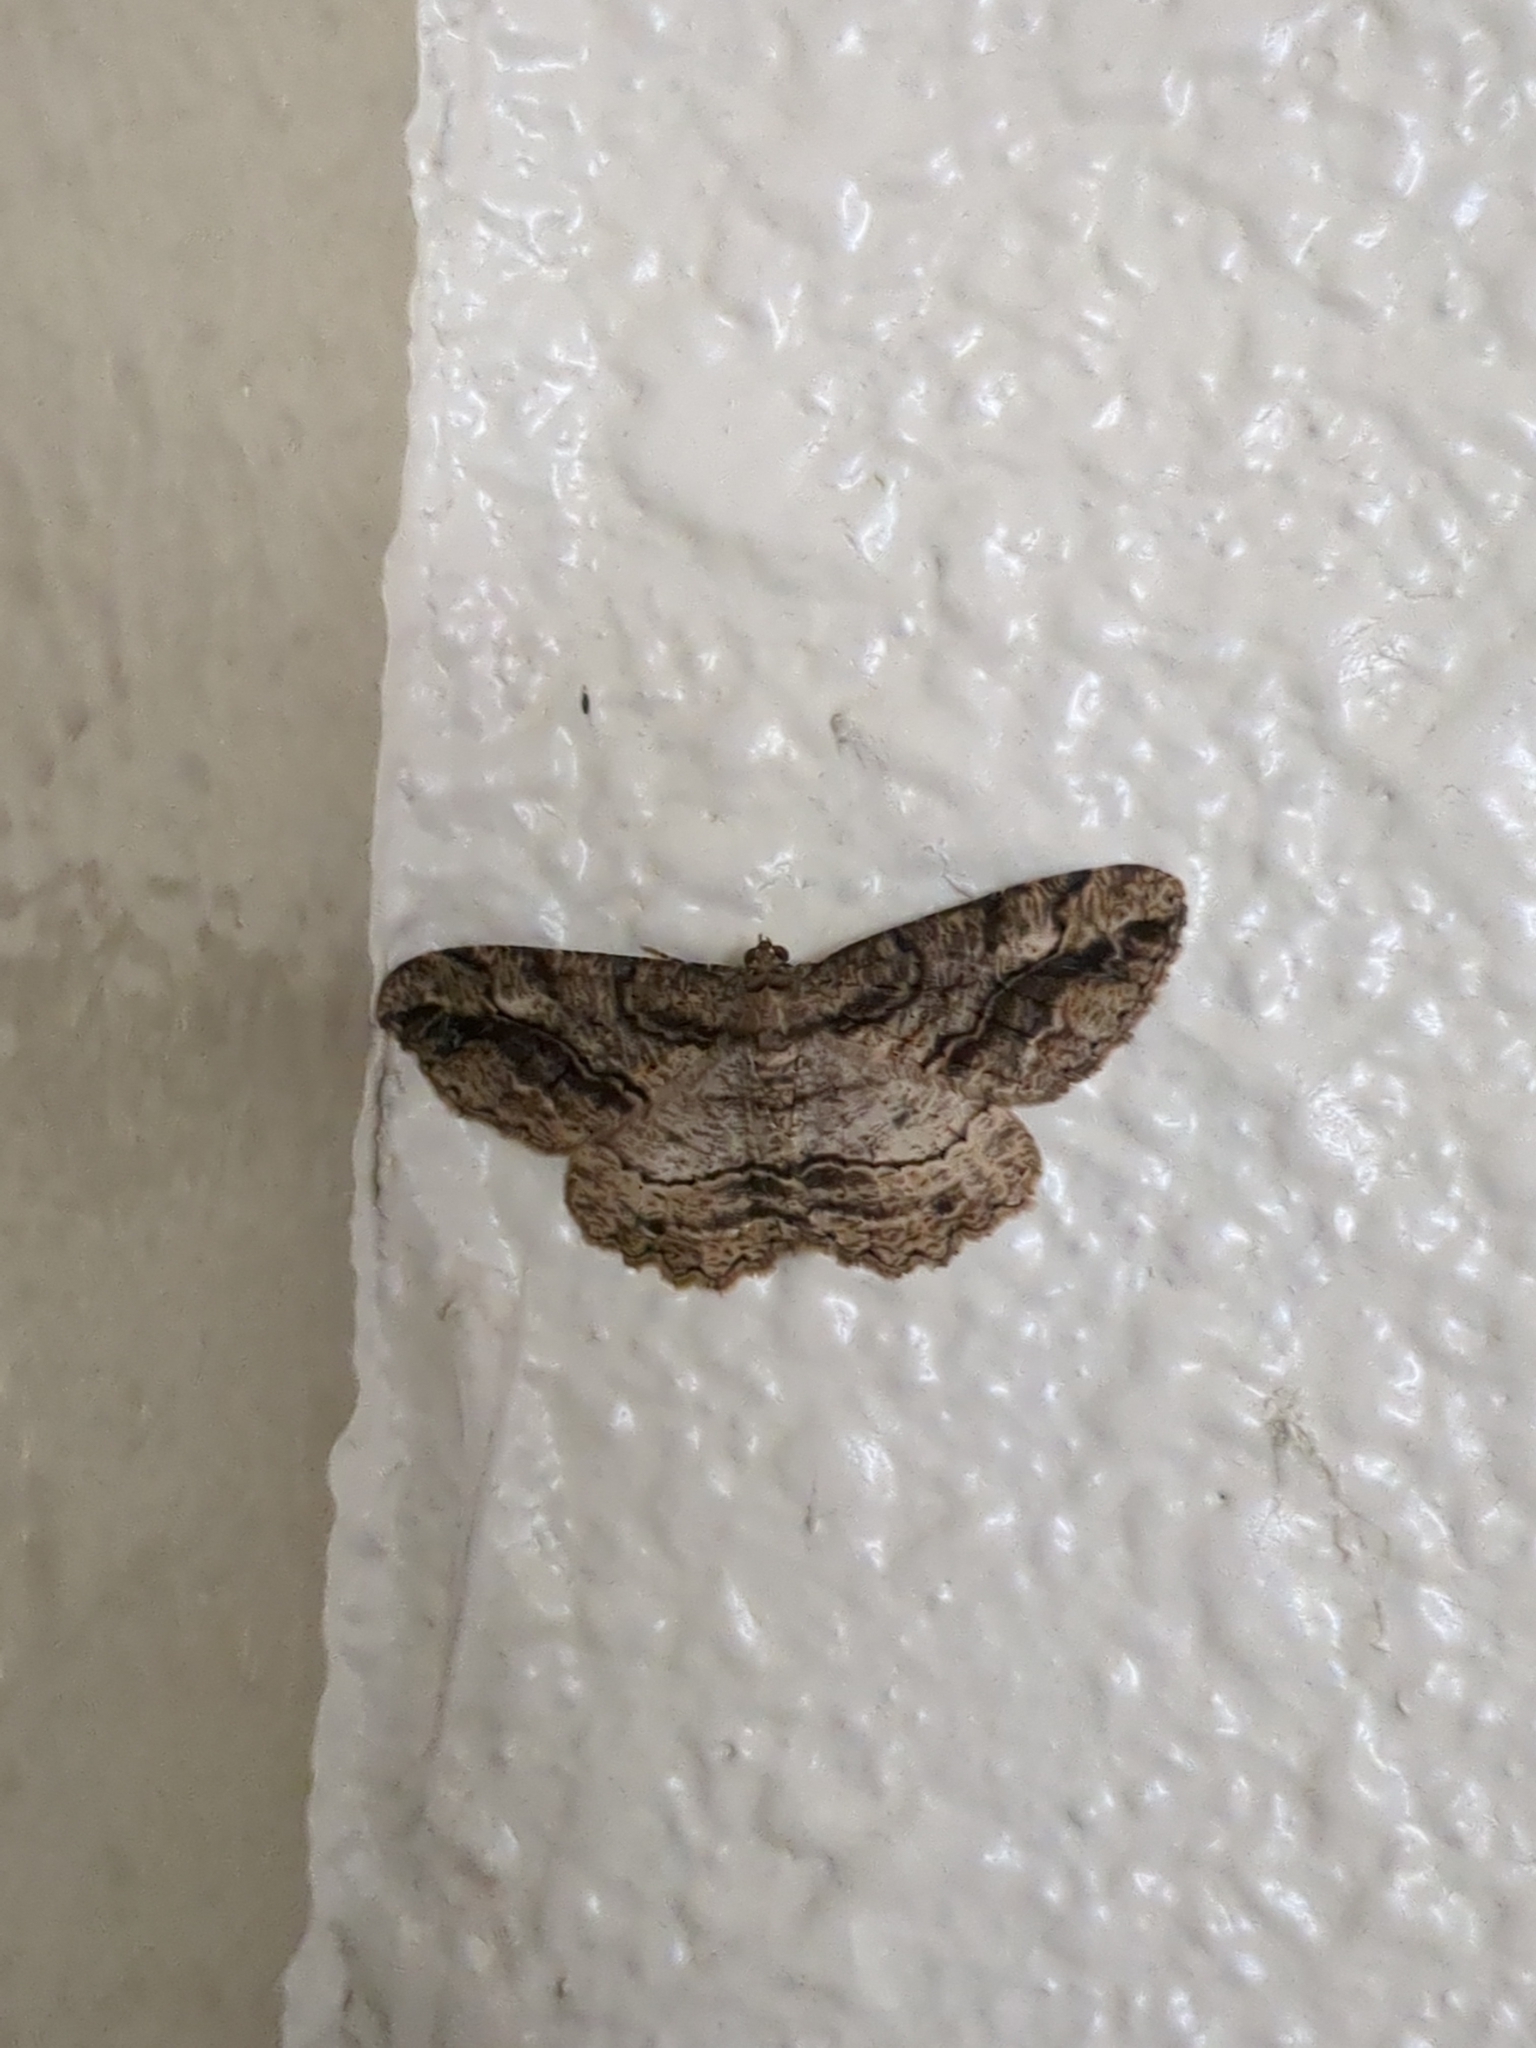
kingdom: Animalia
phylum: Arthropoda
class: Insecta
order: Lepidoptera
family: Geometridae
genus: Neoalcis
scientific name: Neoalcis californiaria
